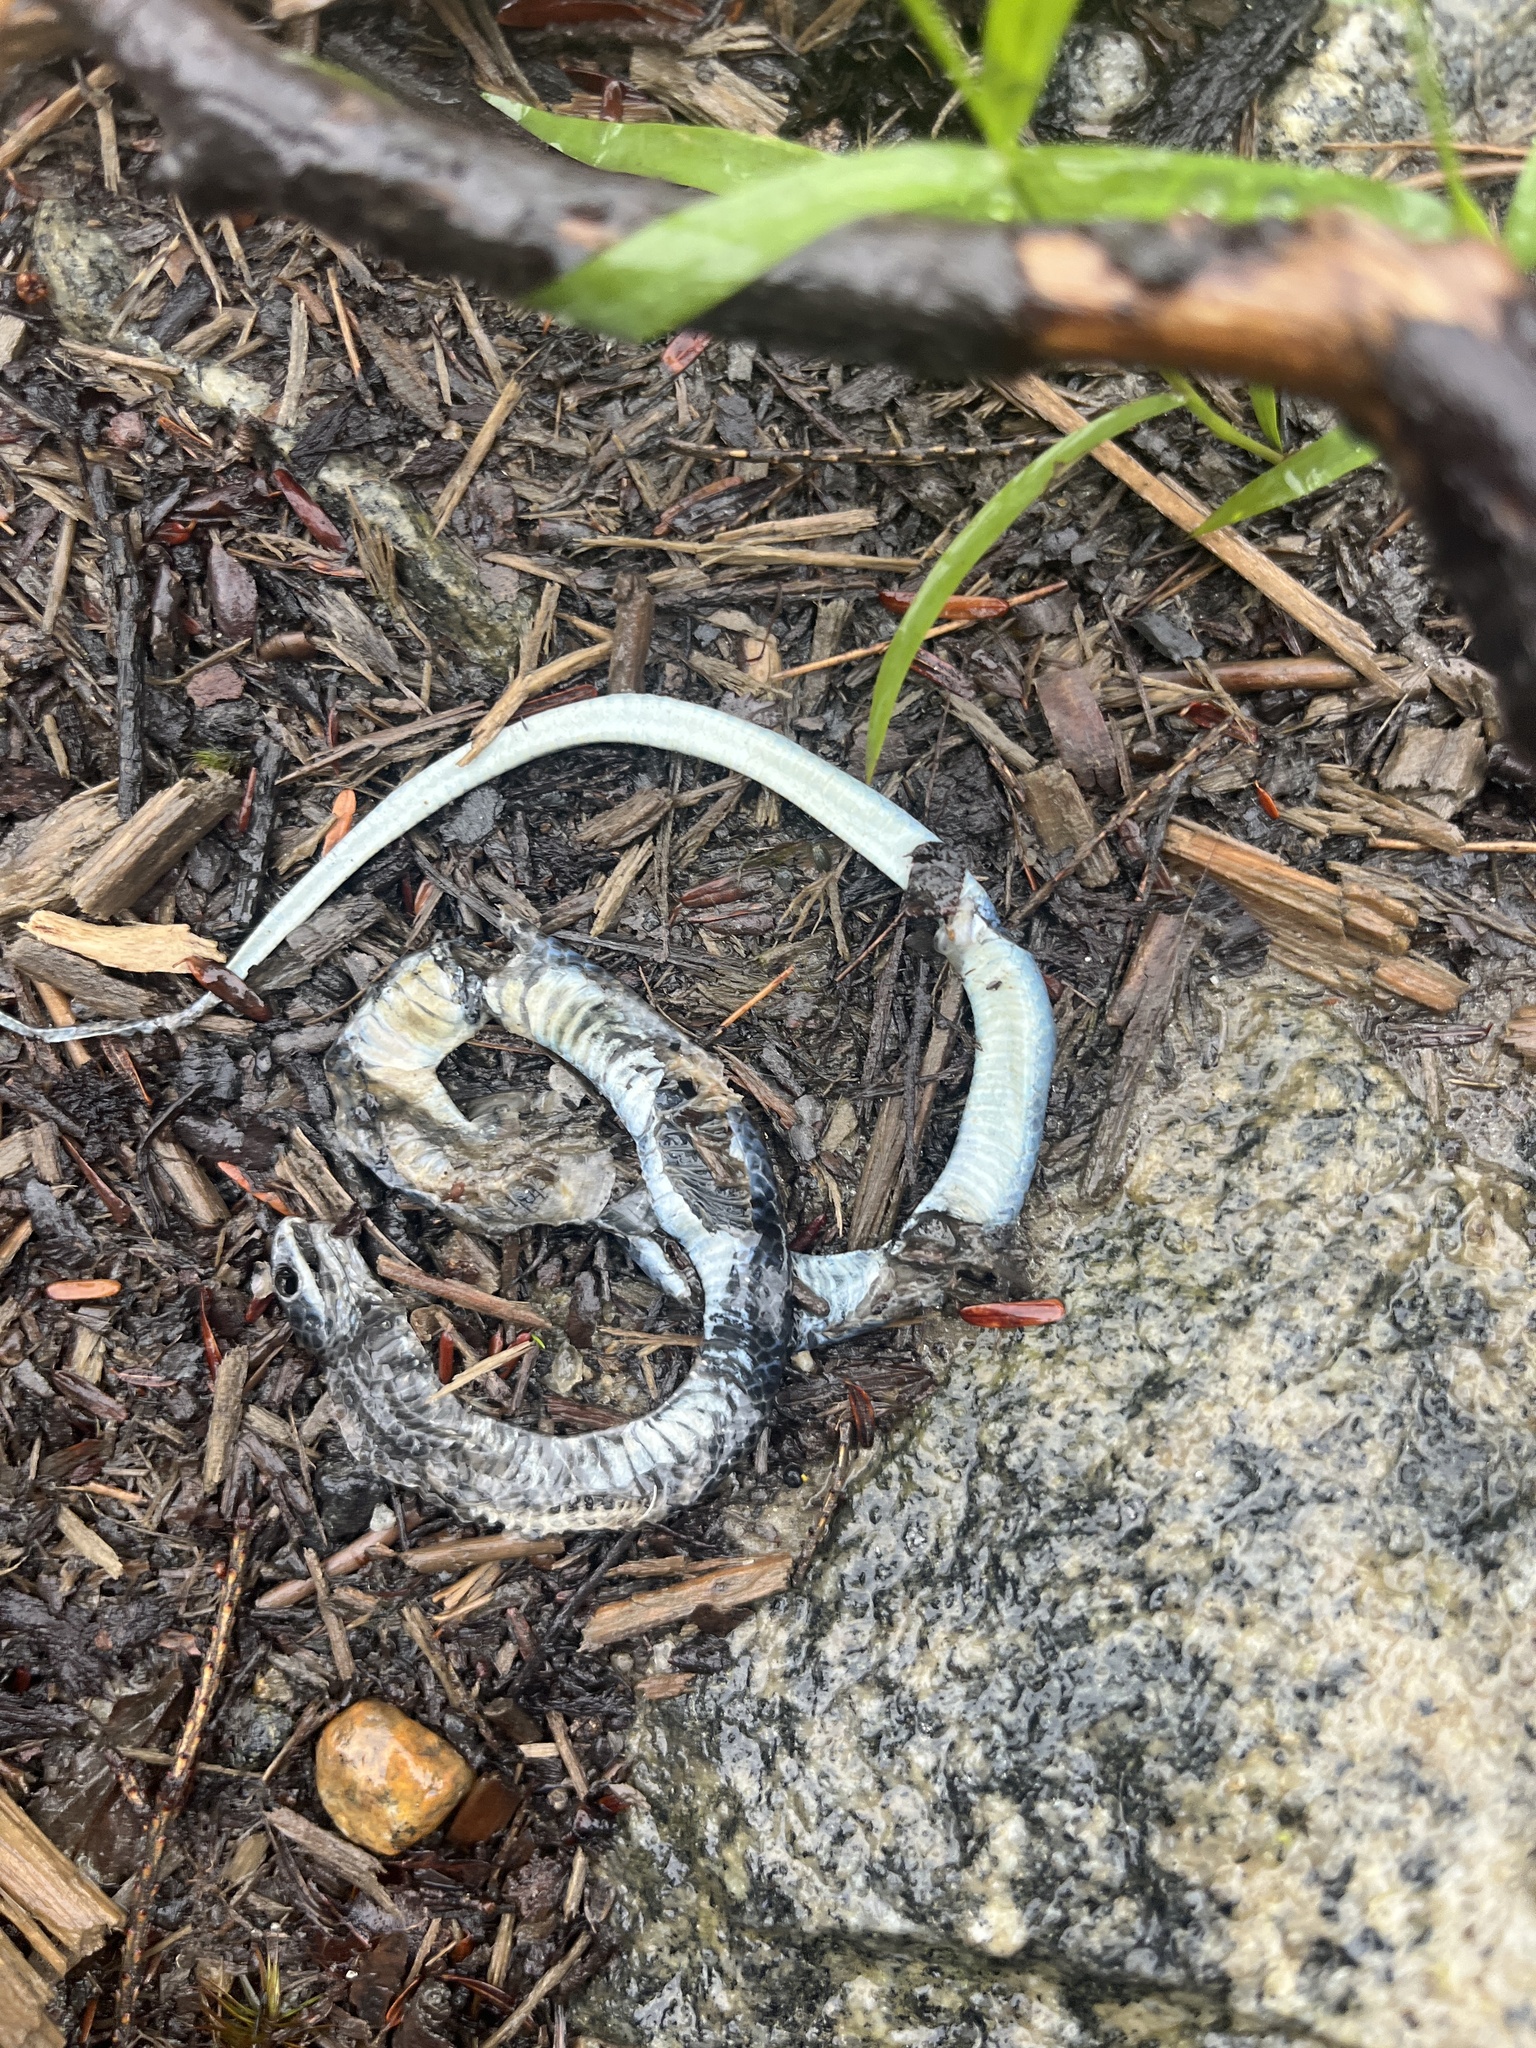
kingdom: Animalia
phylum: Chordata
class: Squamata
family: Colubridae
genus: Opheodrys
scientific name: Opheodrys vernalis
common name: Smooth green snake
